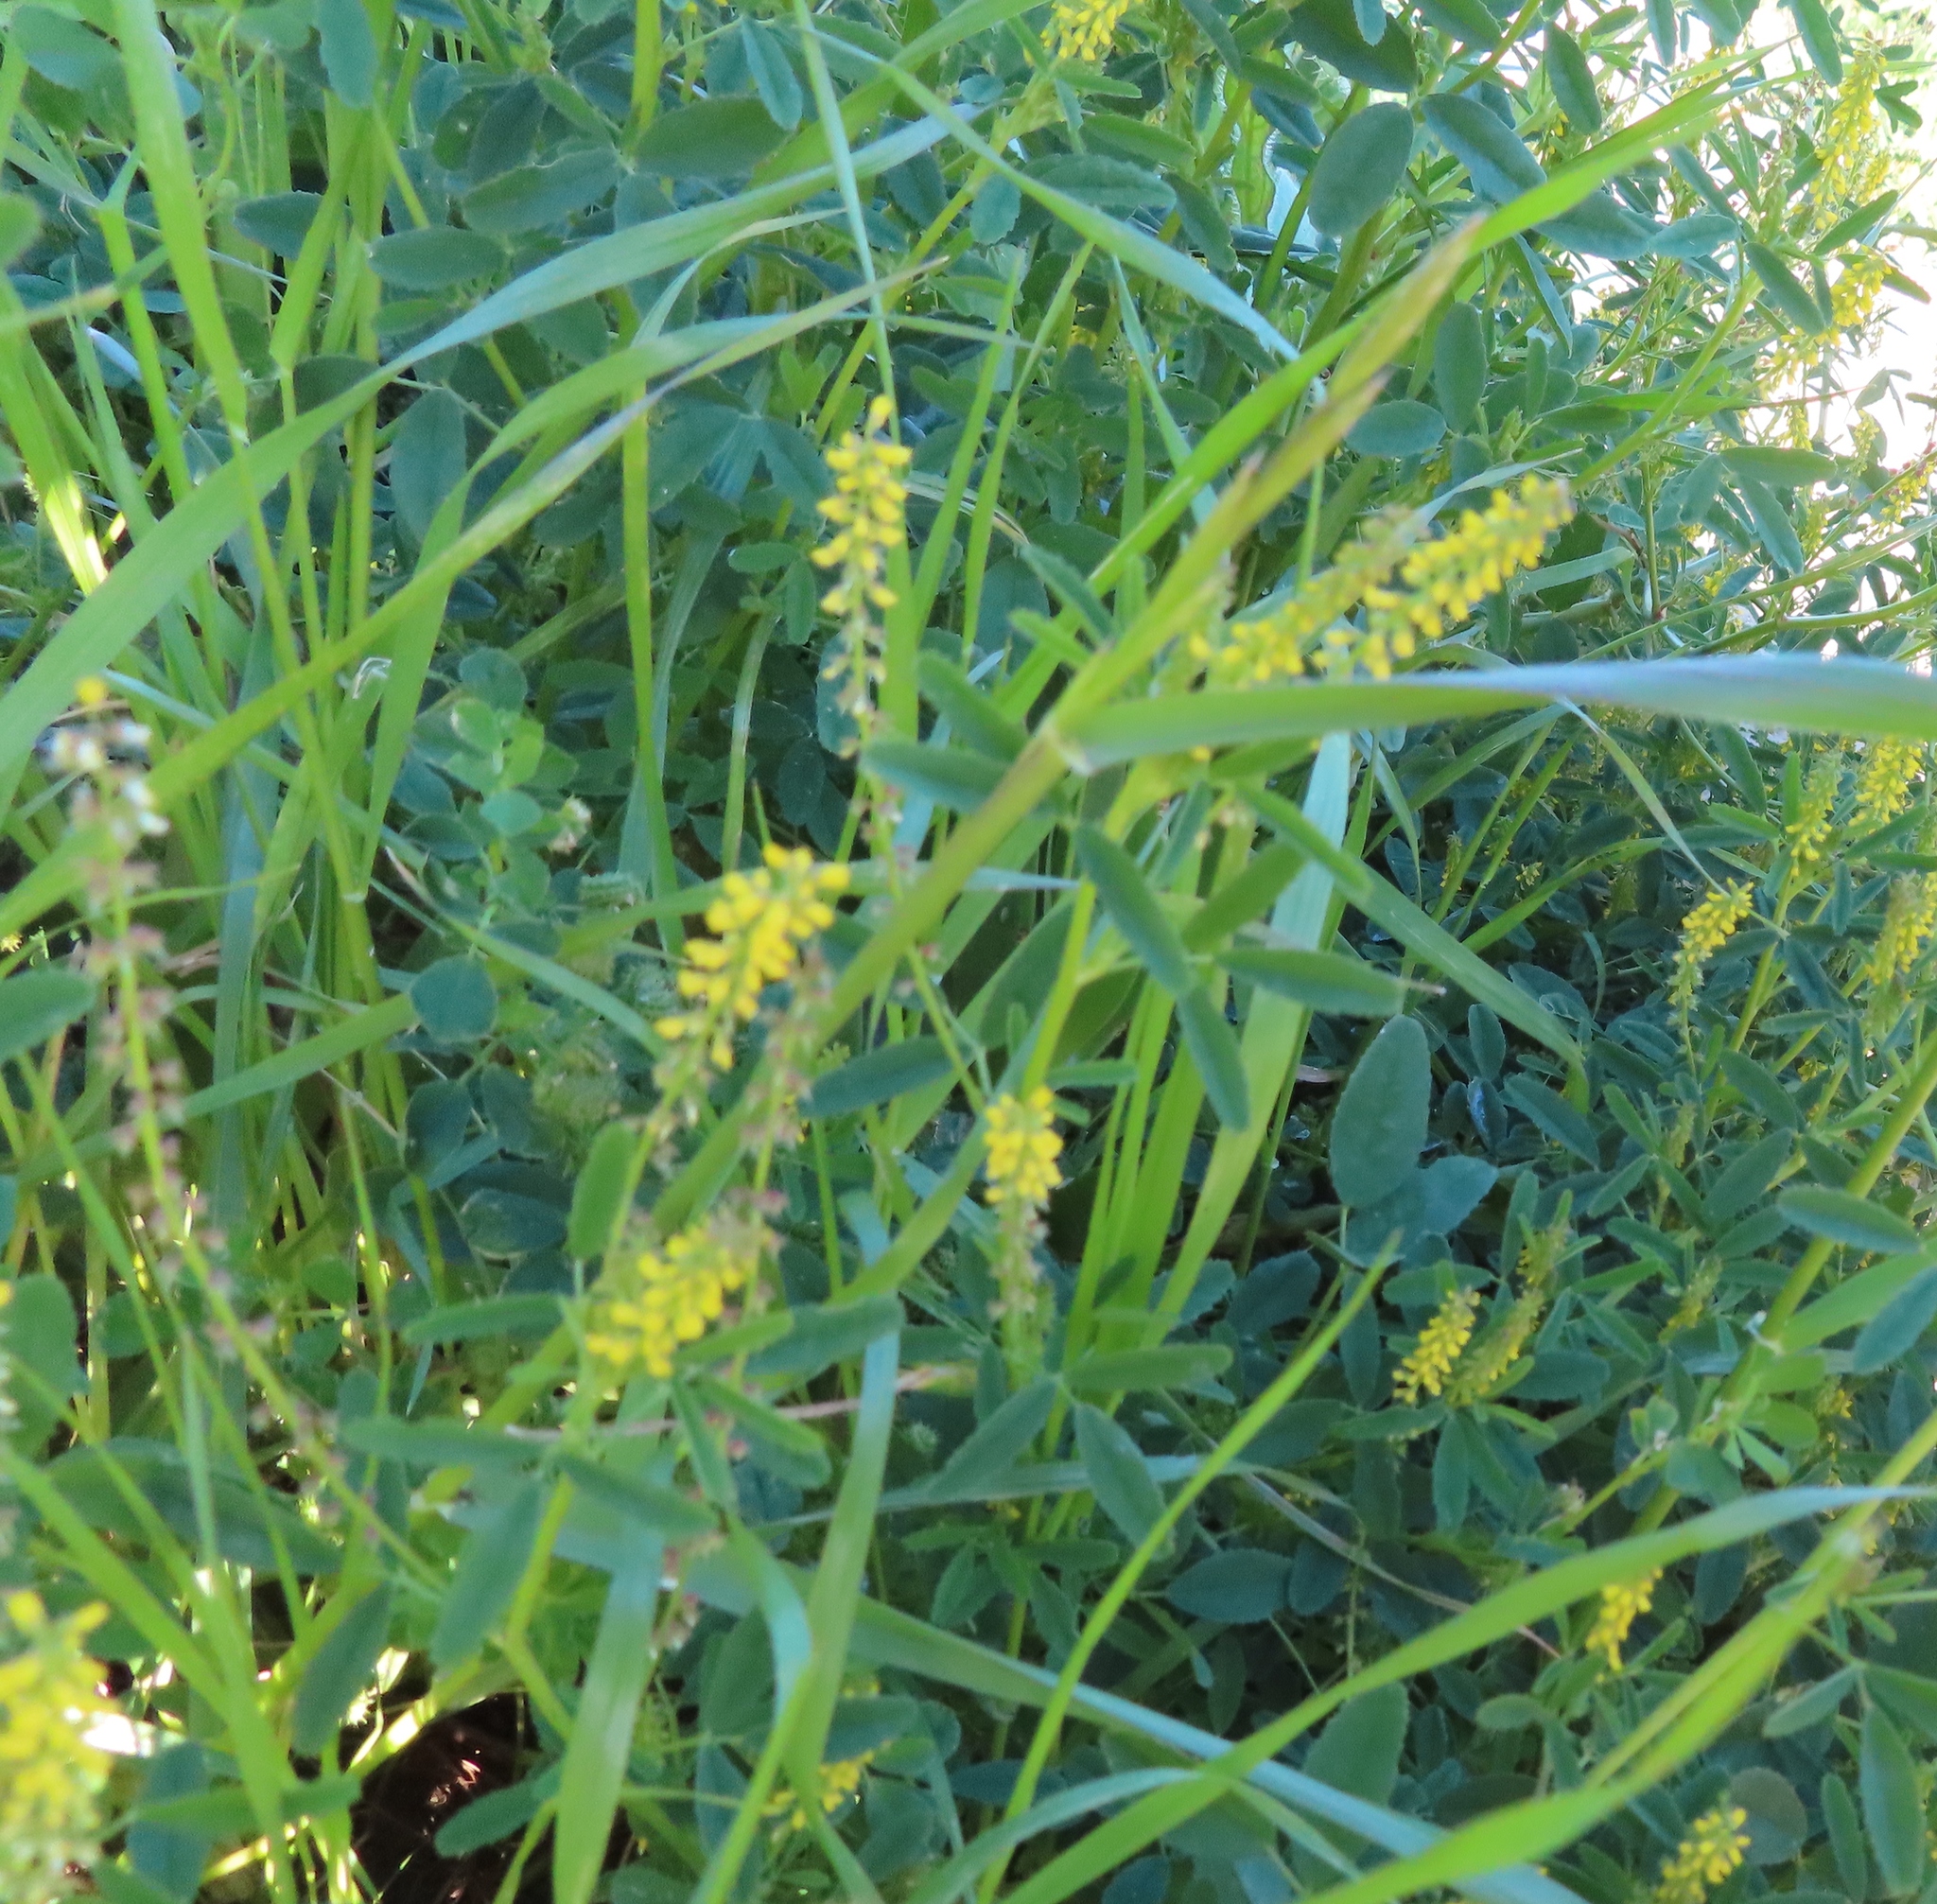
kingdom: Plantae
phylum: Tracheophyta
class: Magnoliopsida
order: Fabales
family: Fabaceae
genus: Melilotus
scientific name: Melilotus indicus
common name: Small melilot
